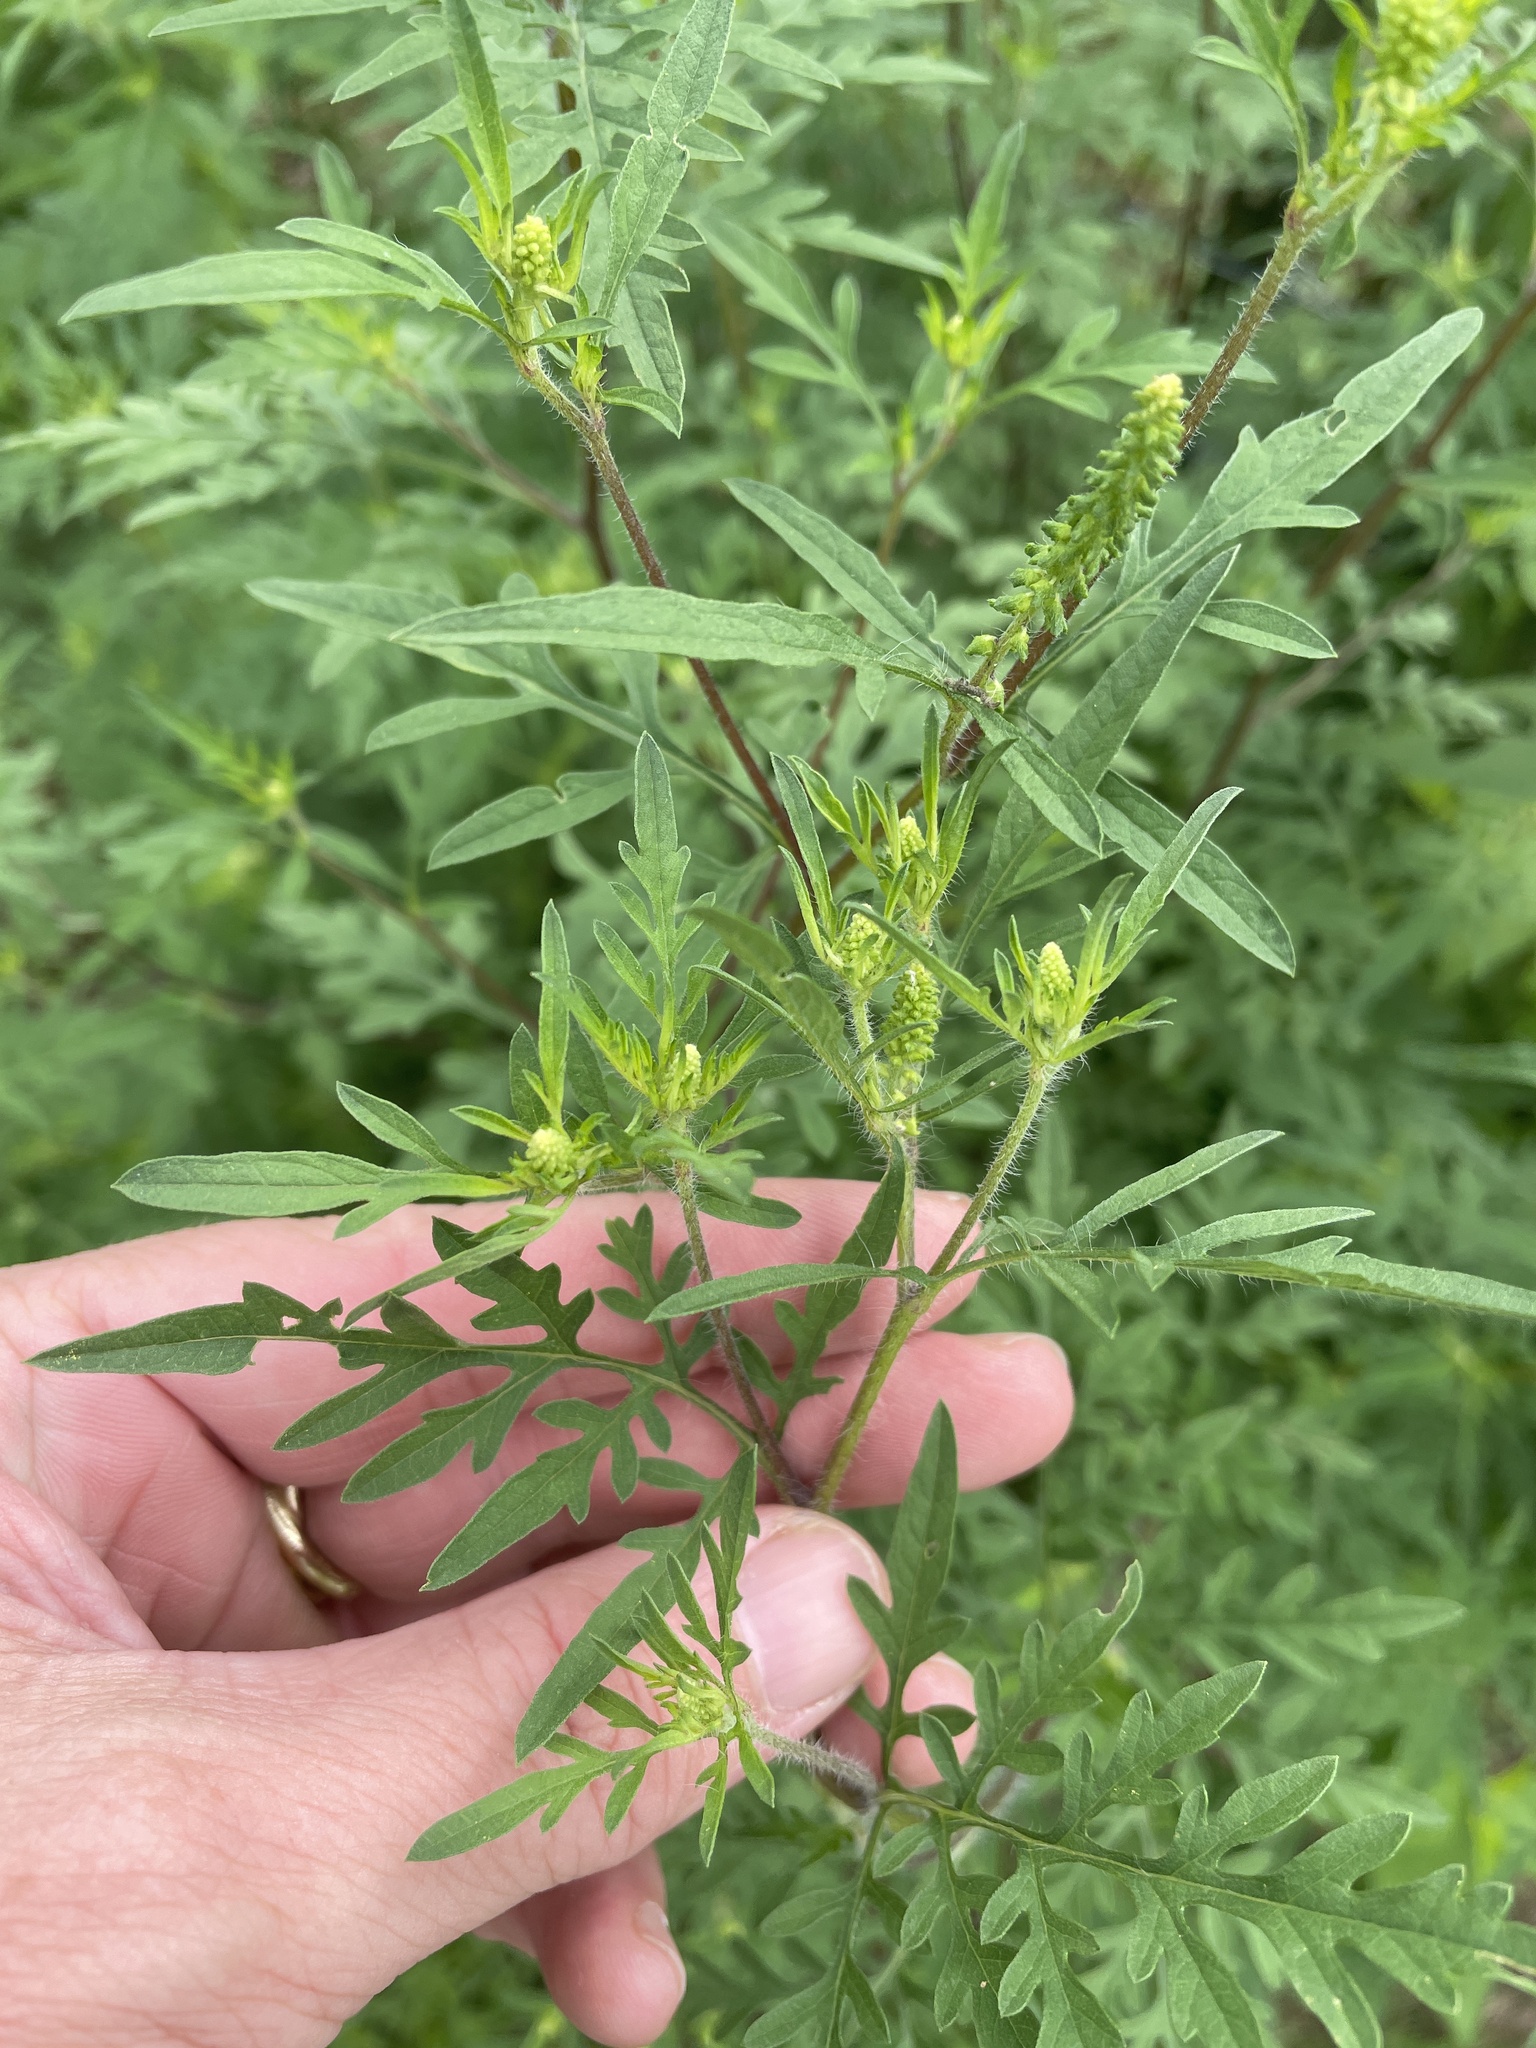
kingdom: Plantae
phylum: Tracheophyta
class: Magnoliopsida
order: Asterales
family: Asteraceae
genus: Ambrosia
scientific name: Ambrosia artemisiifolia
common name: Annual ragweed
